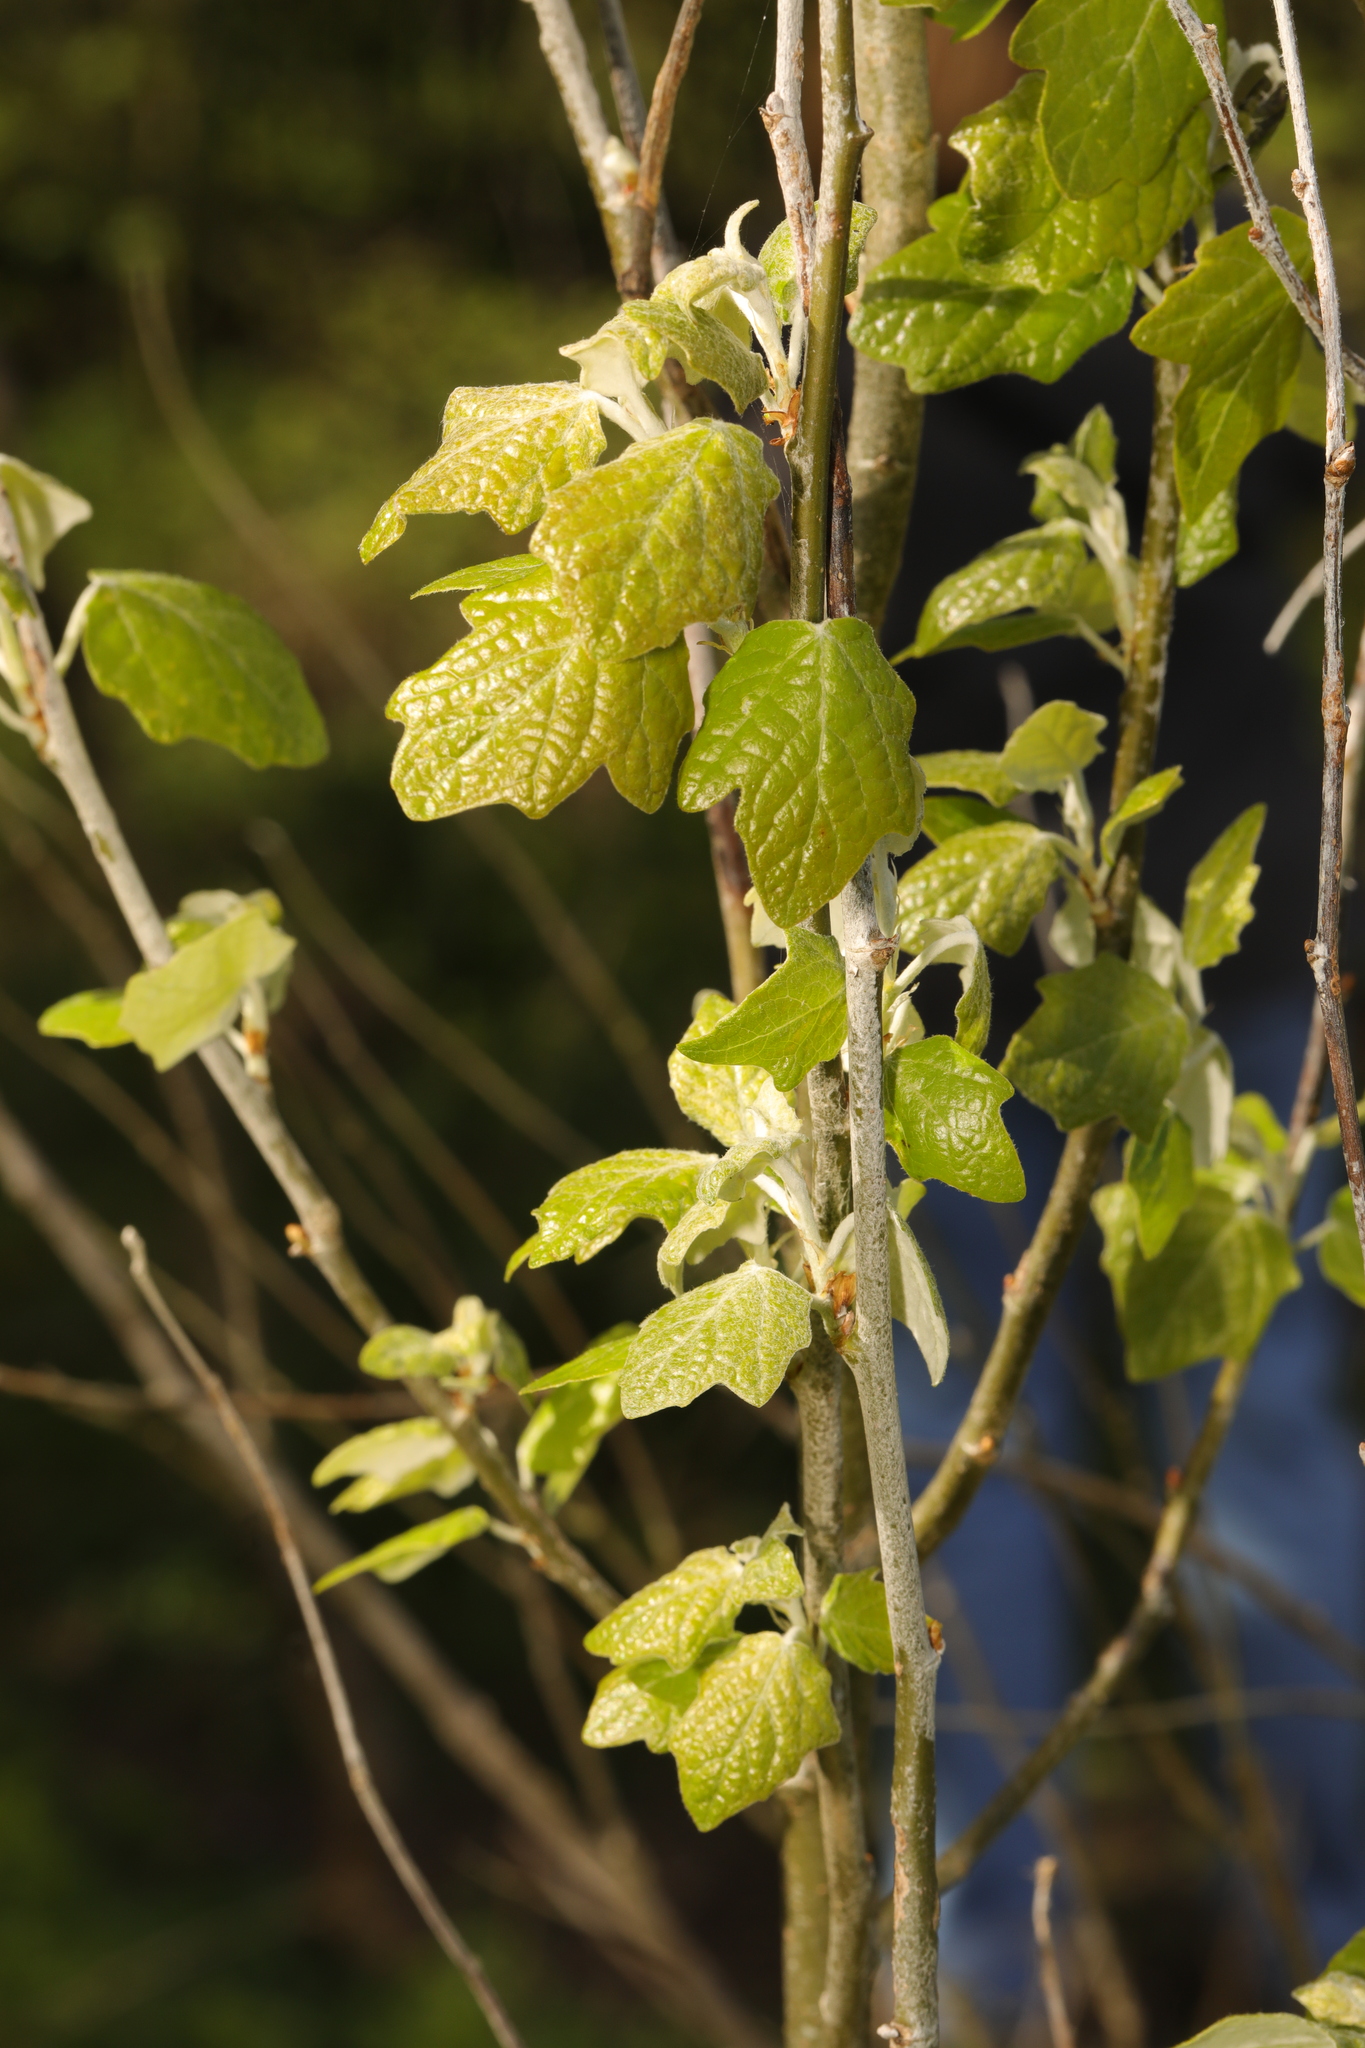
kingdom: Plantae
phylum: Tracheophyta
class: Magnoliopsida
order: Malpighiales
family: Salicaceae
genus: Populus
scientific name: Populus alba
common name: White poplar
